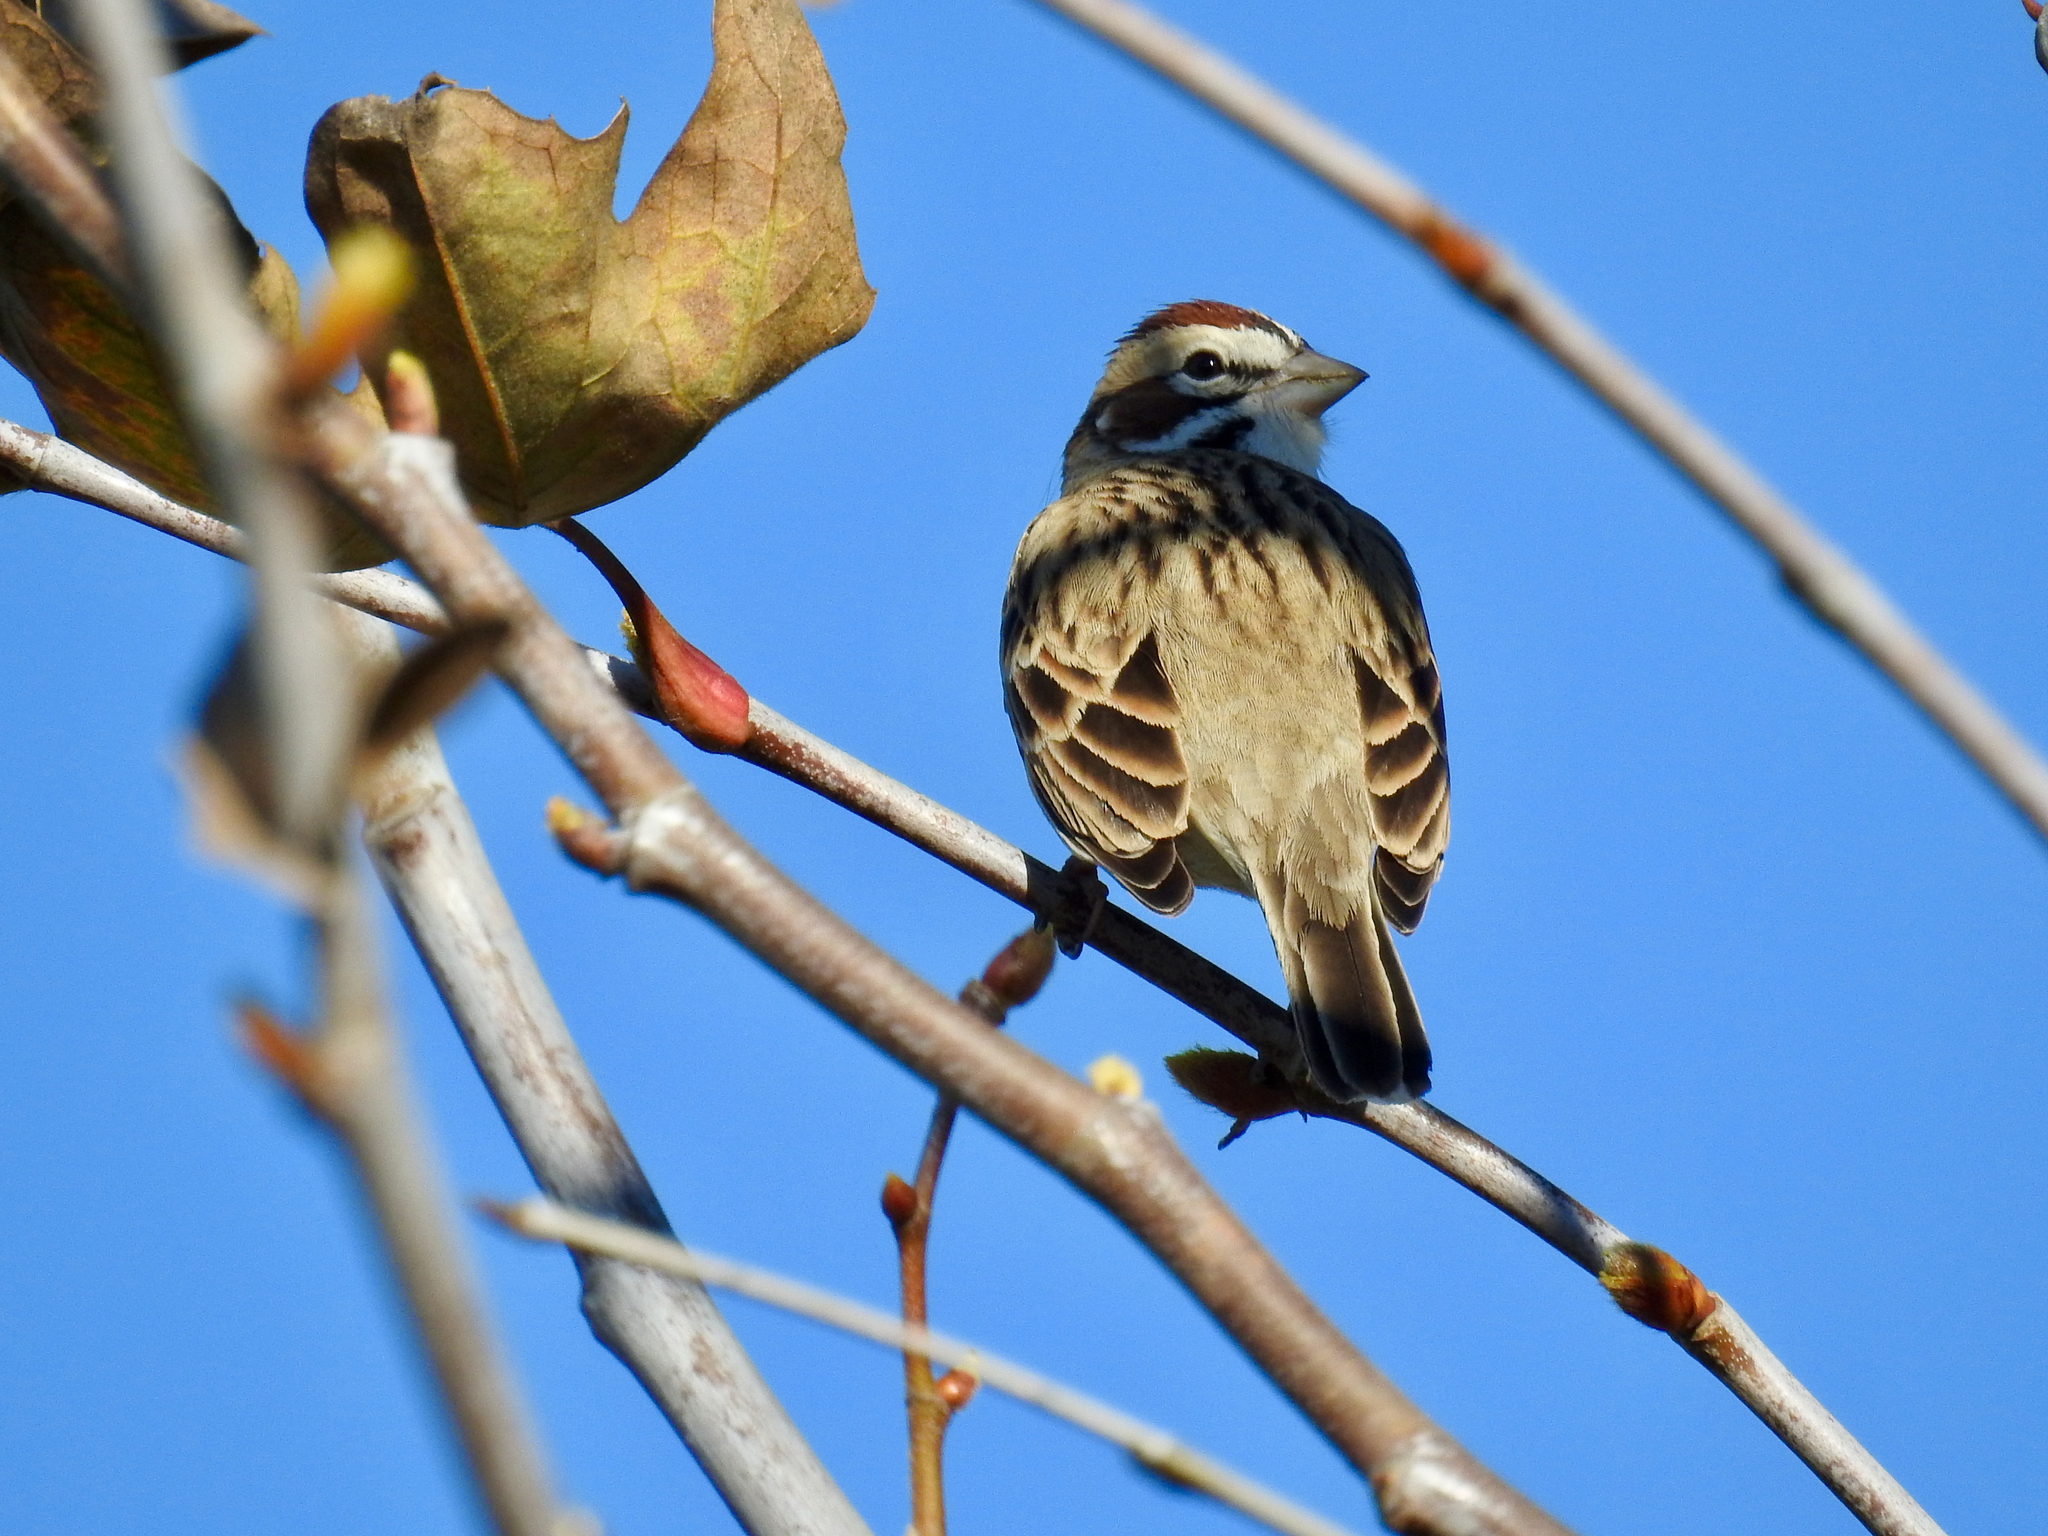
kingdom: Animalia
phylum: Chordata
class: Aves
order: Passeriformes
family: Passerellidae
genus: Chondestes
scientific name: Chondestes grammacus
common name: Lark sparrow
